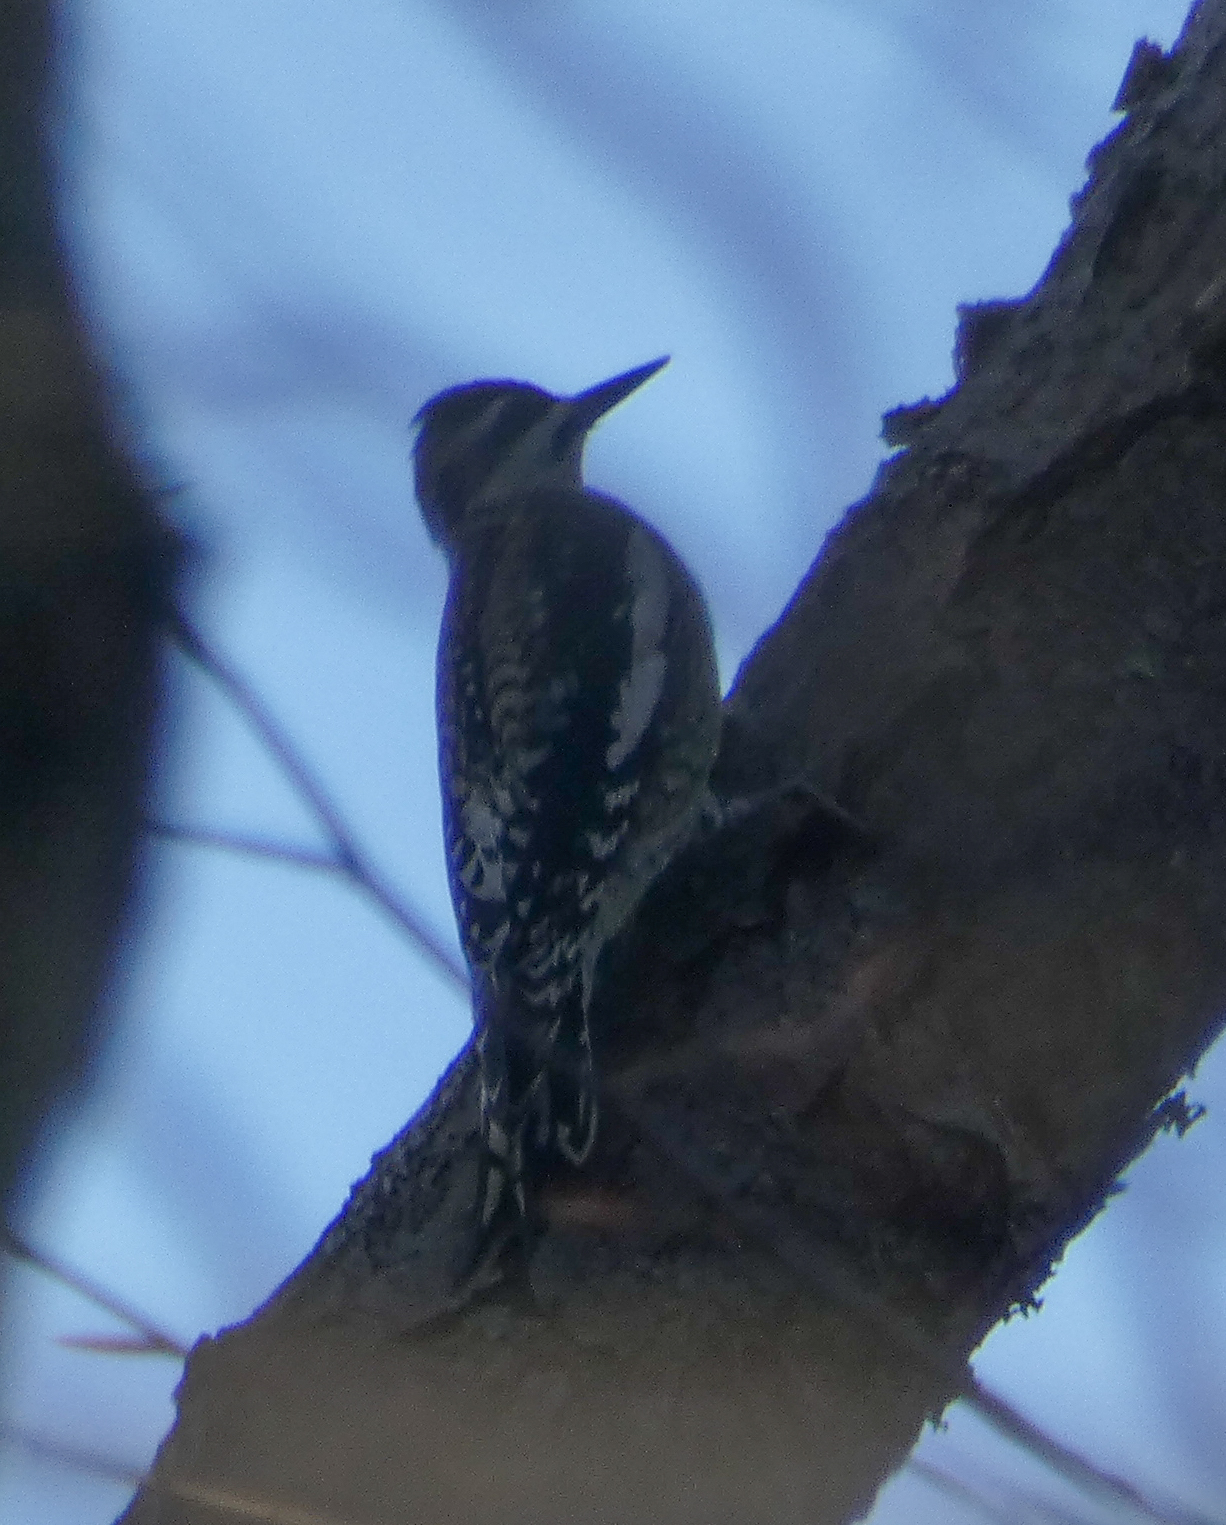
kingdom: Animalia
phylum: Chordata
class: Aves
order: Piciformes
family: Picidae
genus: Sphyrapicus
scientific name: Sphyrapicus varius
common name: Yellow-bellied sapsucker
